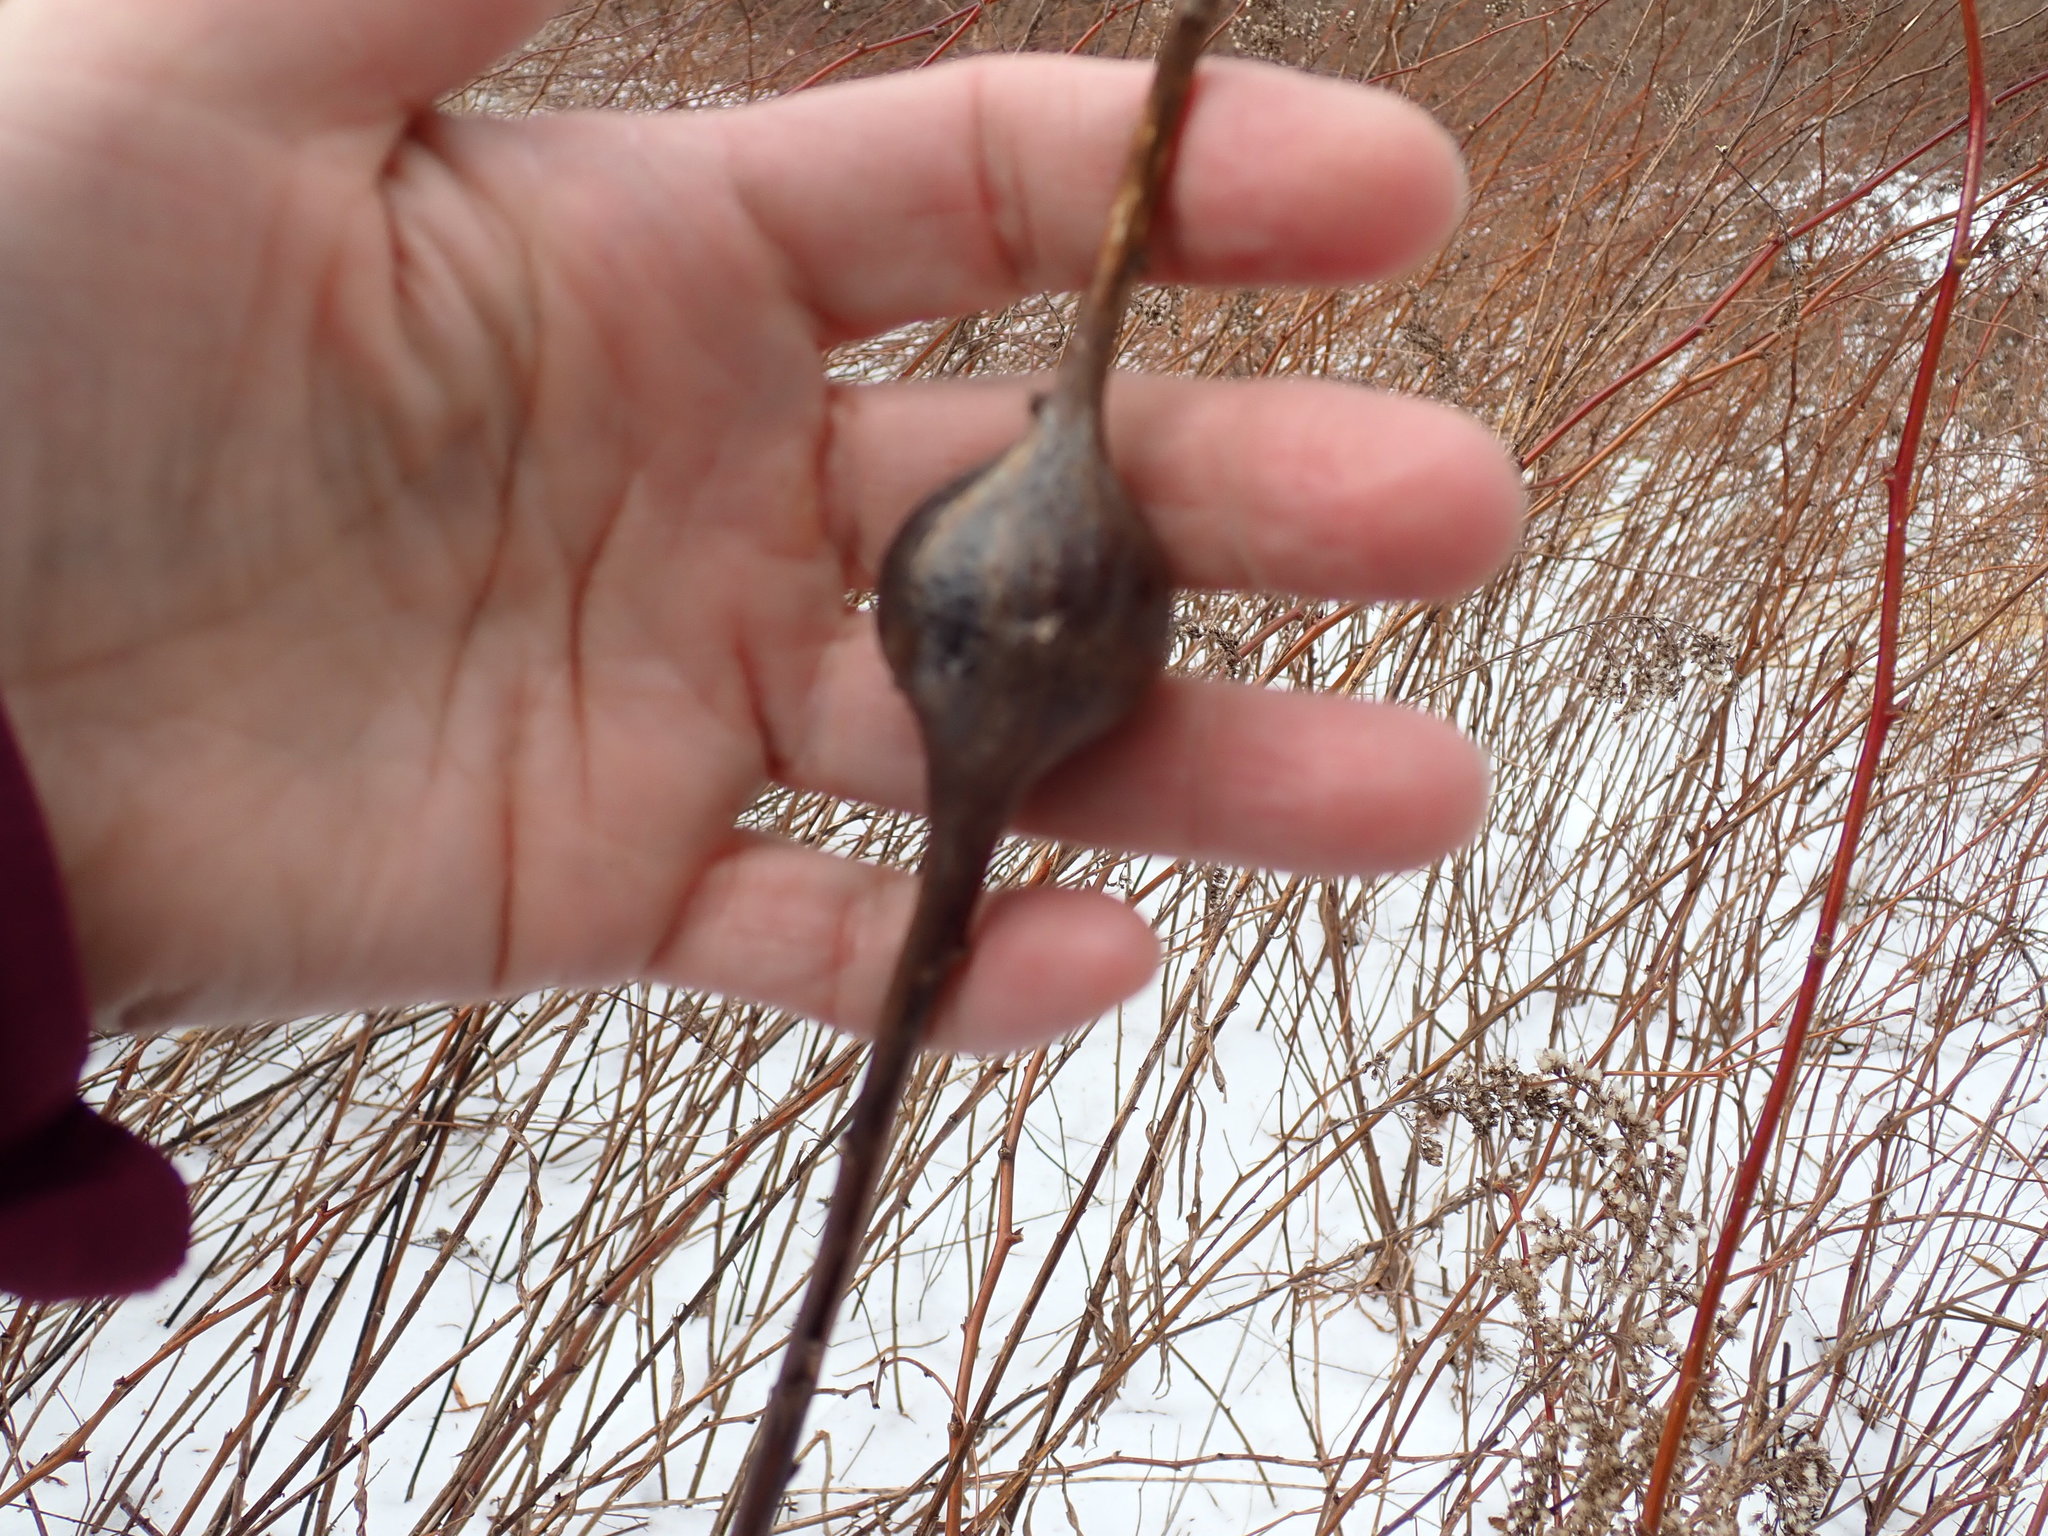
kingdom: Animalia
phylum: Arthropoda
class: Insecta
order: Diptera
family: Tephritidae
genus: Eurosta
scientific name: Eurosta solidaginis
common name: Goldenrod gall fly
